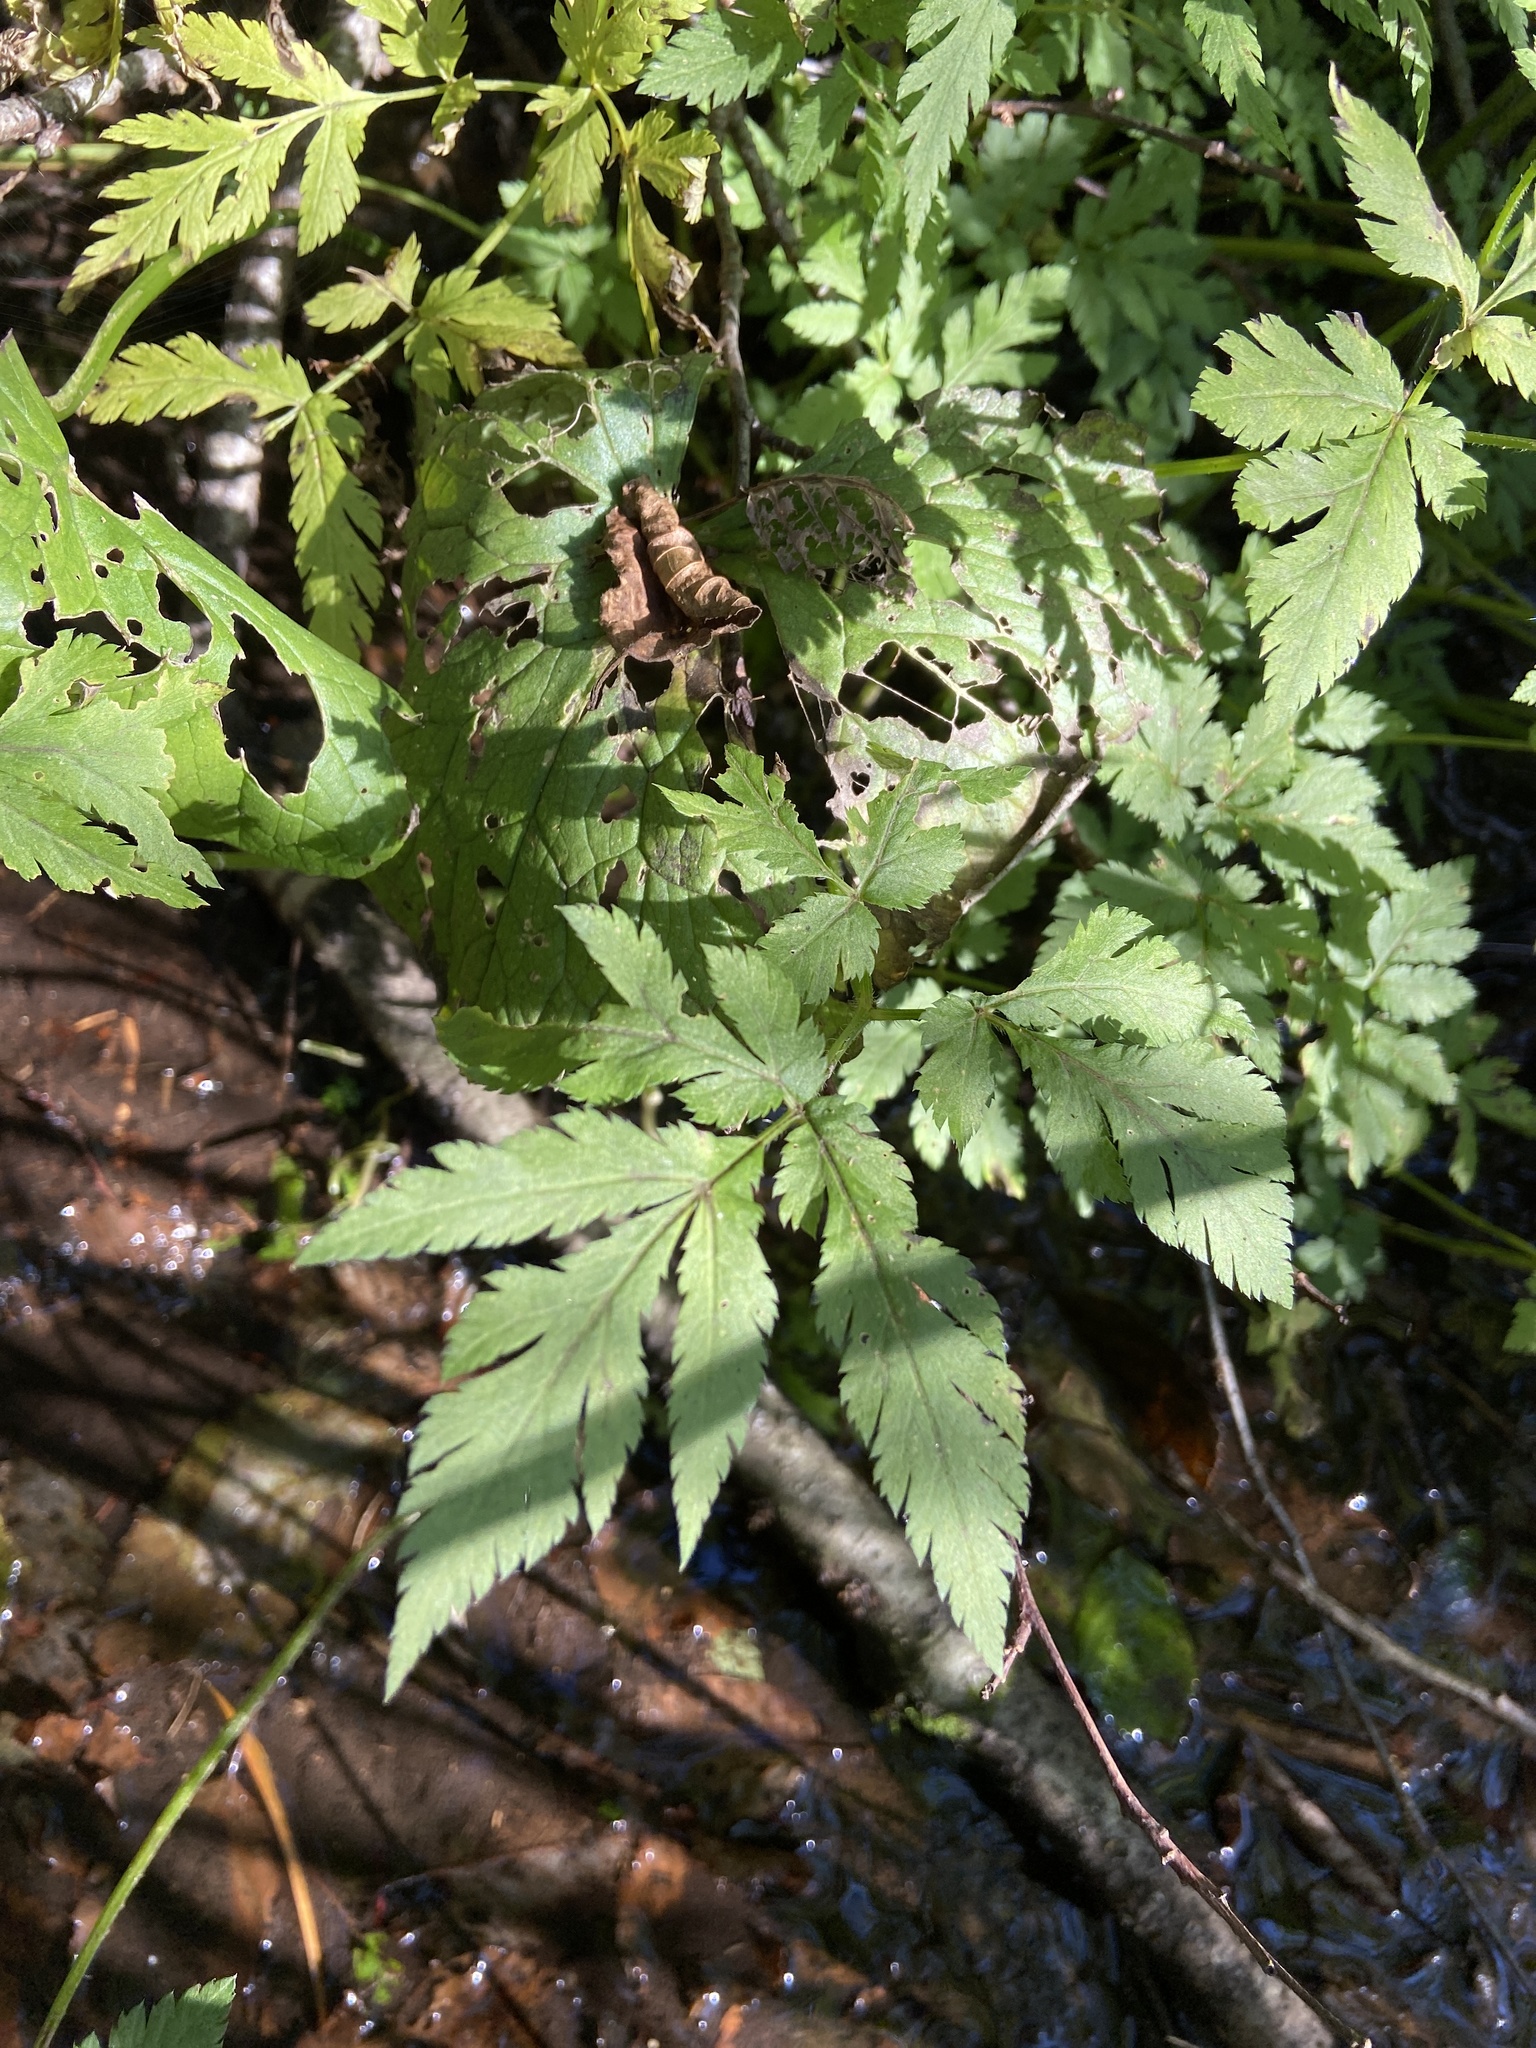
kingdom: Plantae
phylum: Tracheophyta
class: Magnoliopsida
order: Apiales
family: Apiaceae
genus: Chaerophyllum
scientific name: Chaerophyllum hirsutum
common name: Hairy chervil
